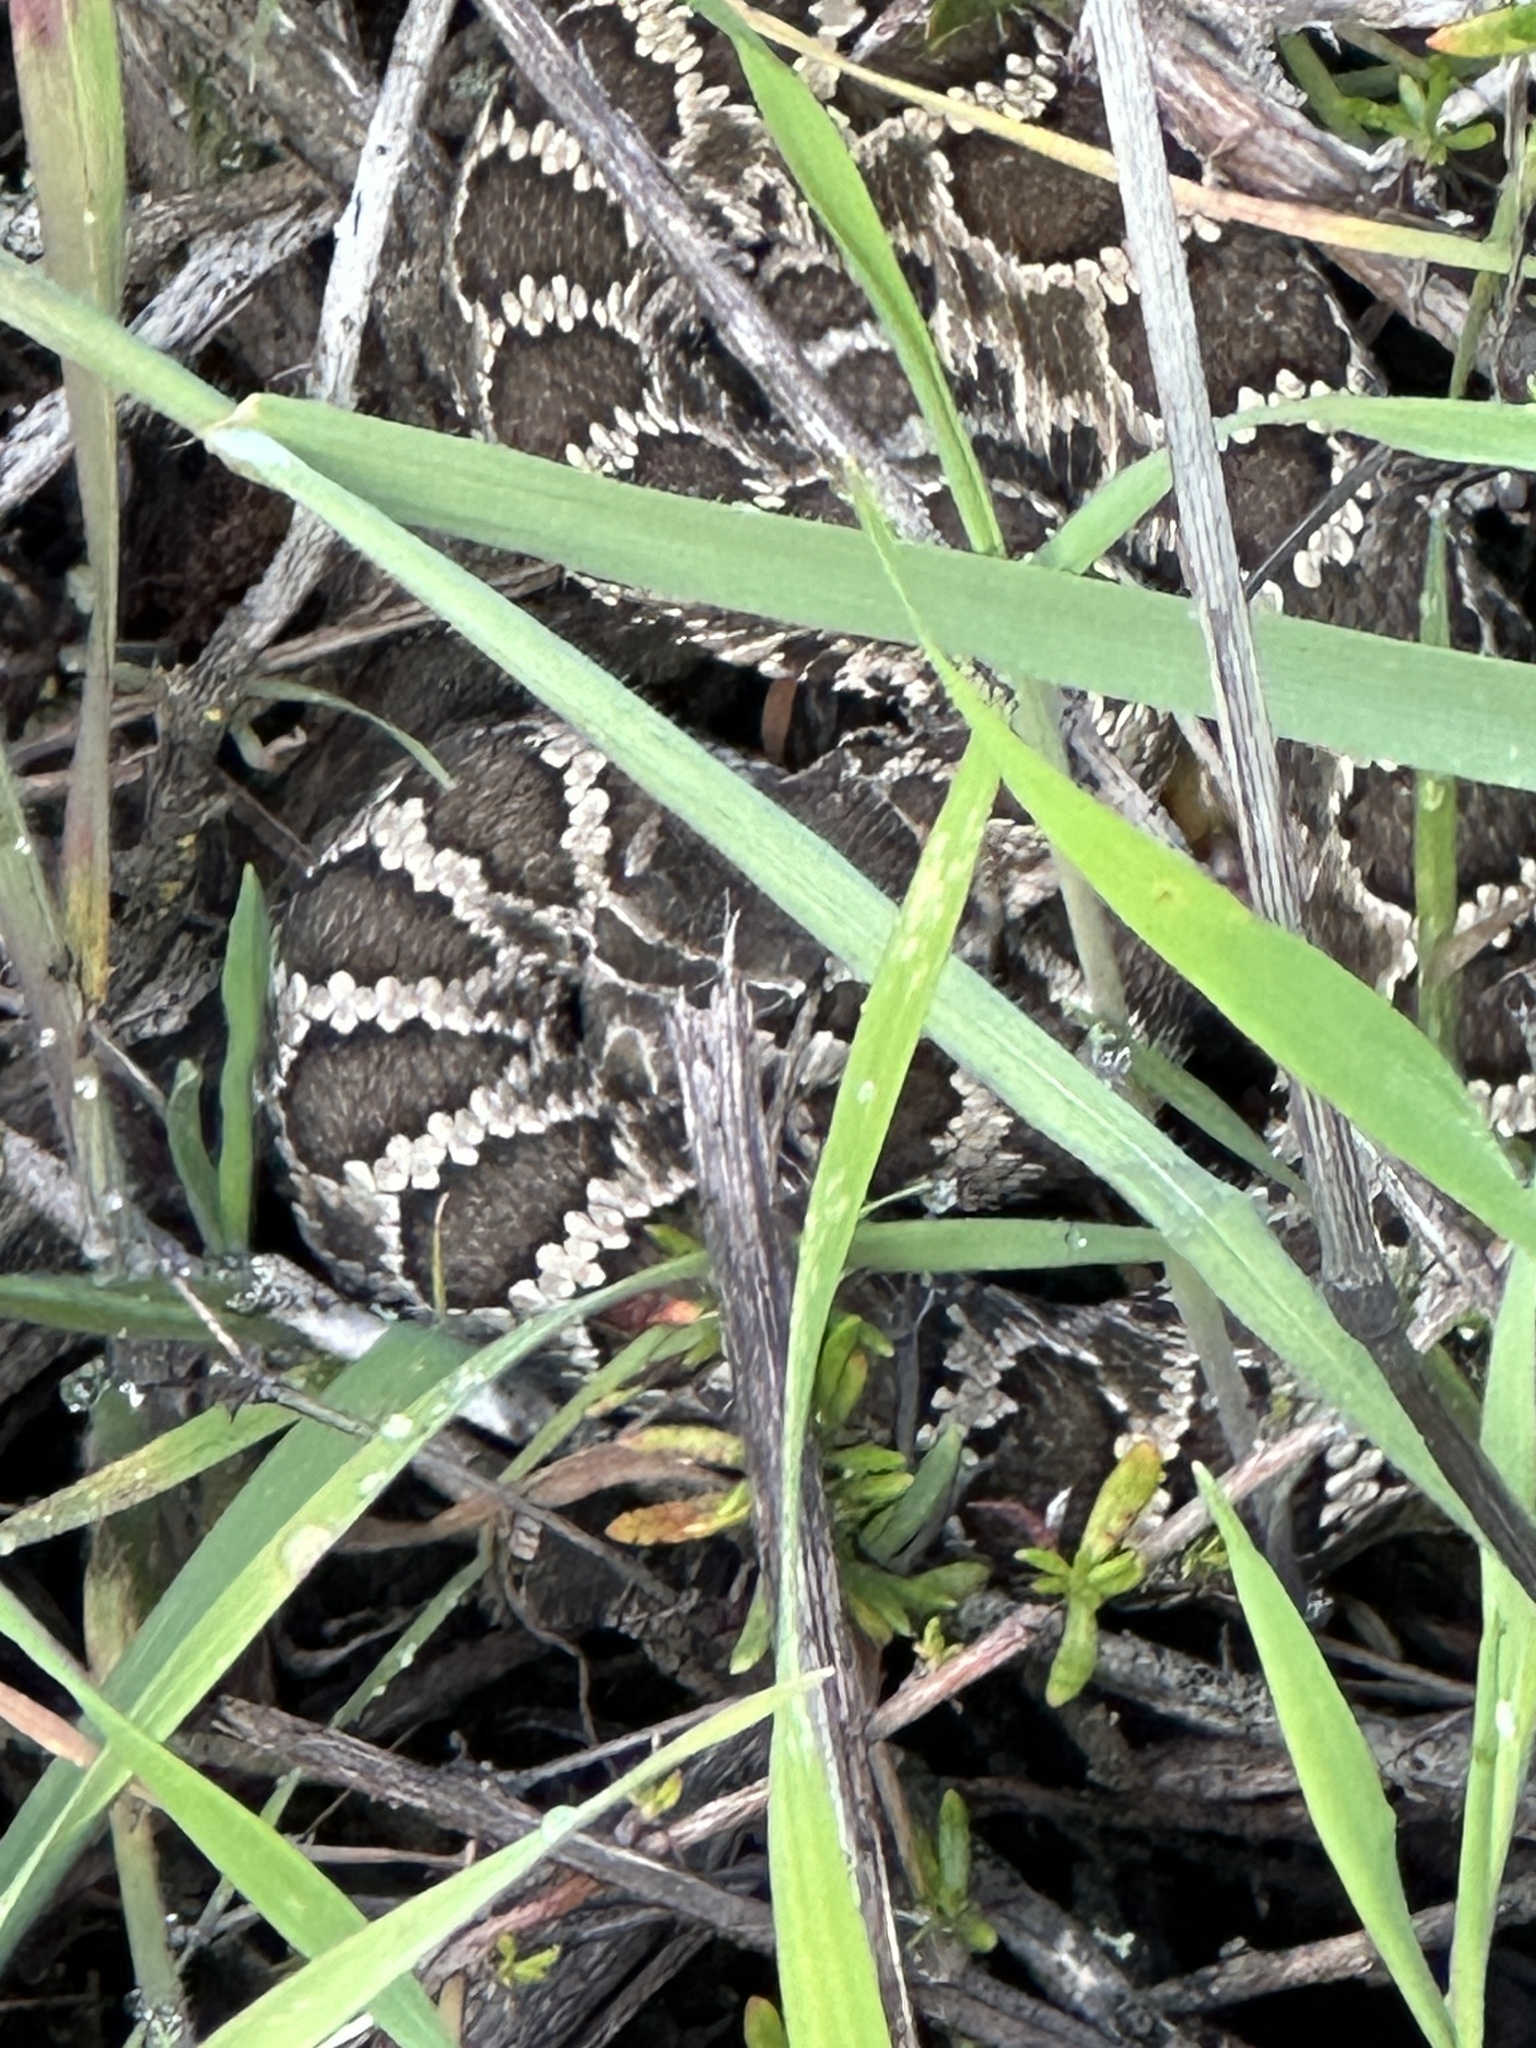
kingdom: Animalia
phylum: Chordata
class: Squamata
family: Viperidae
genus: Crotalus
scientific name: Crotalus oreganus
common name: Abyssus
